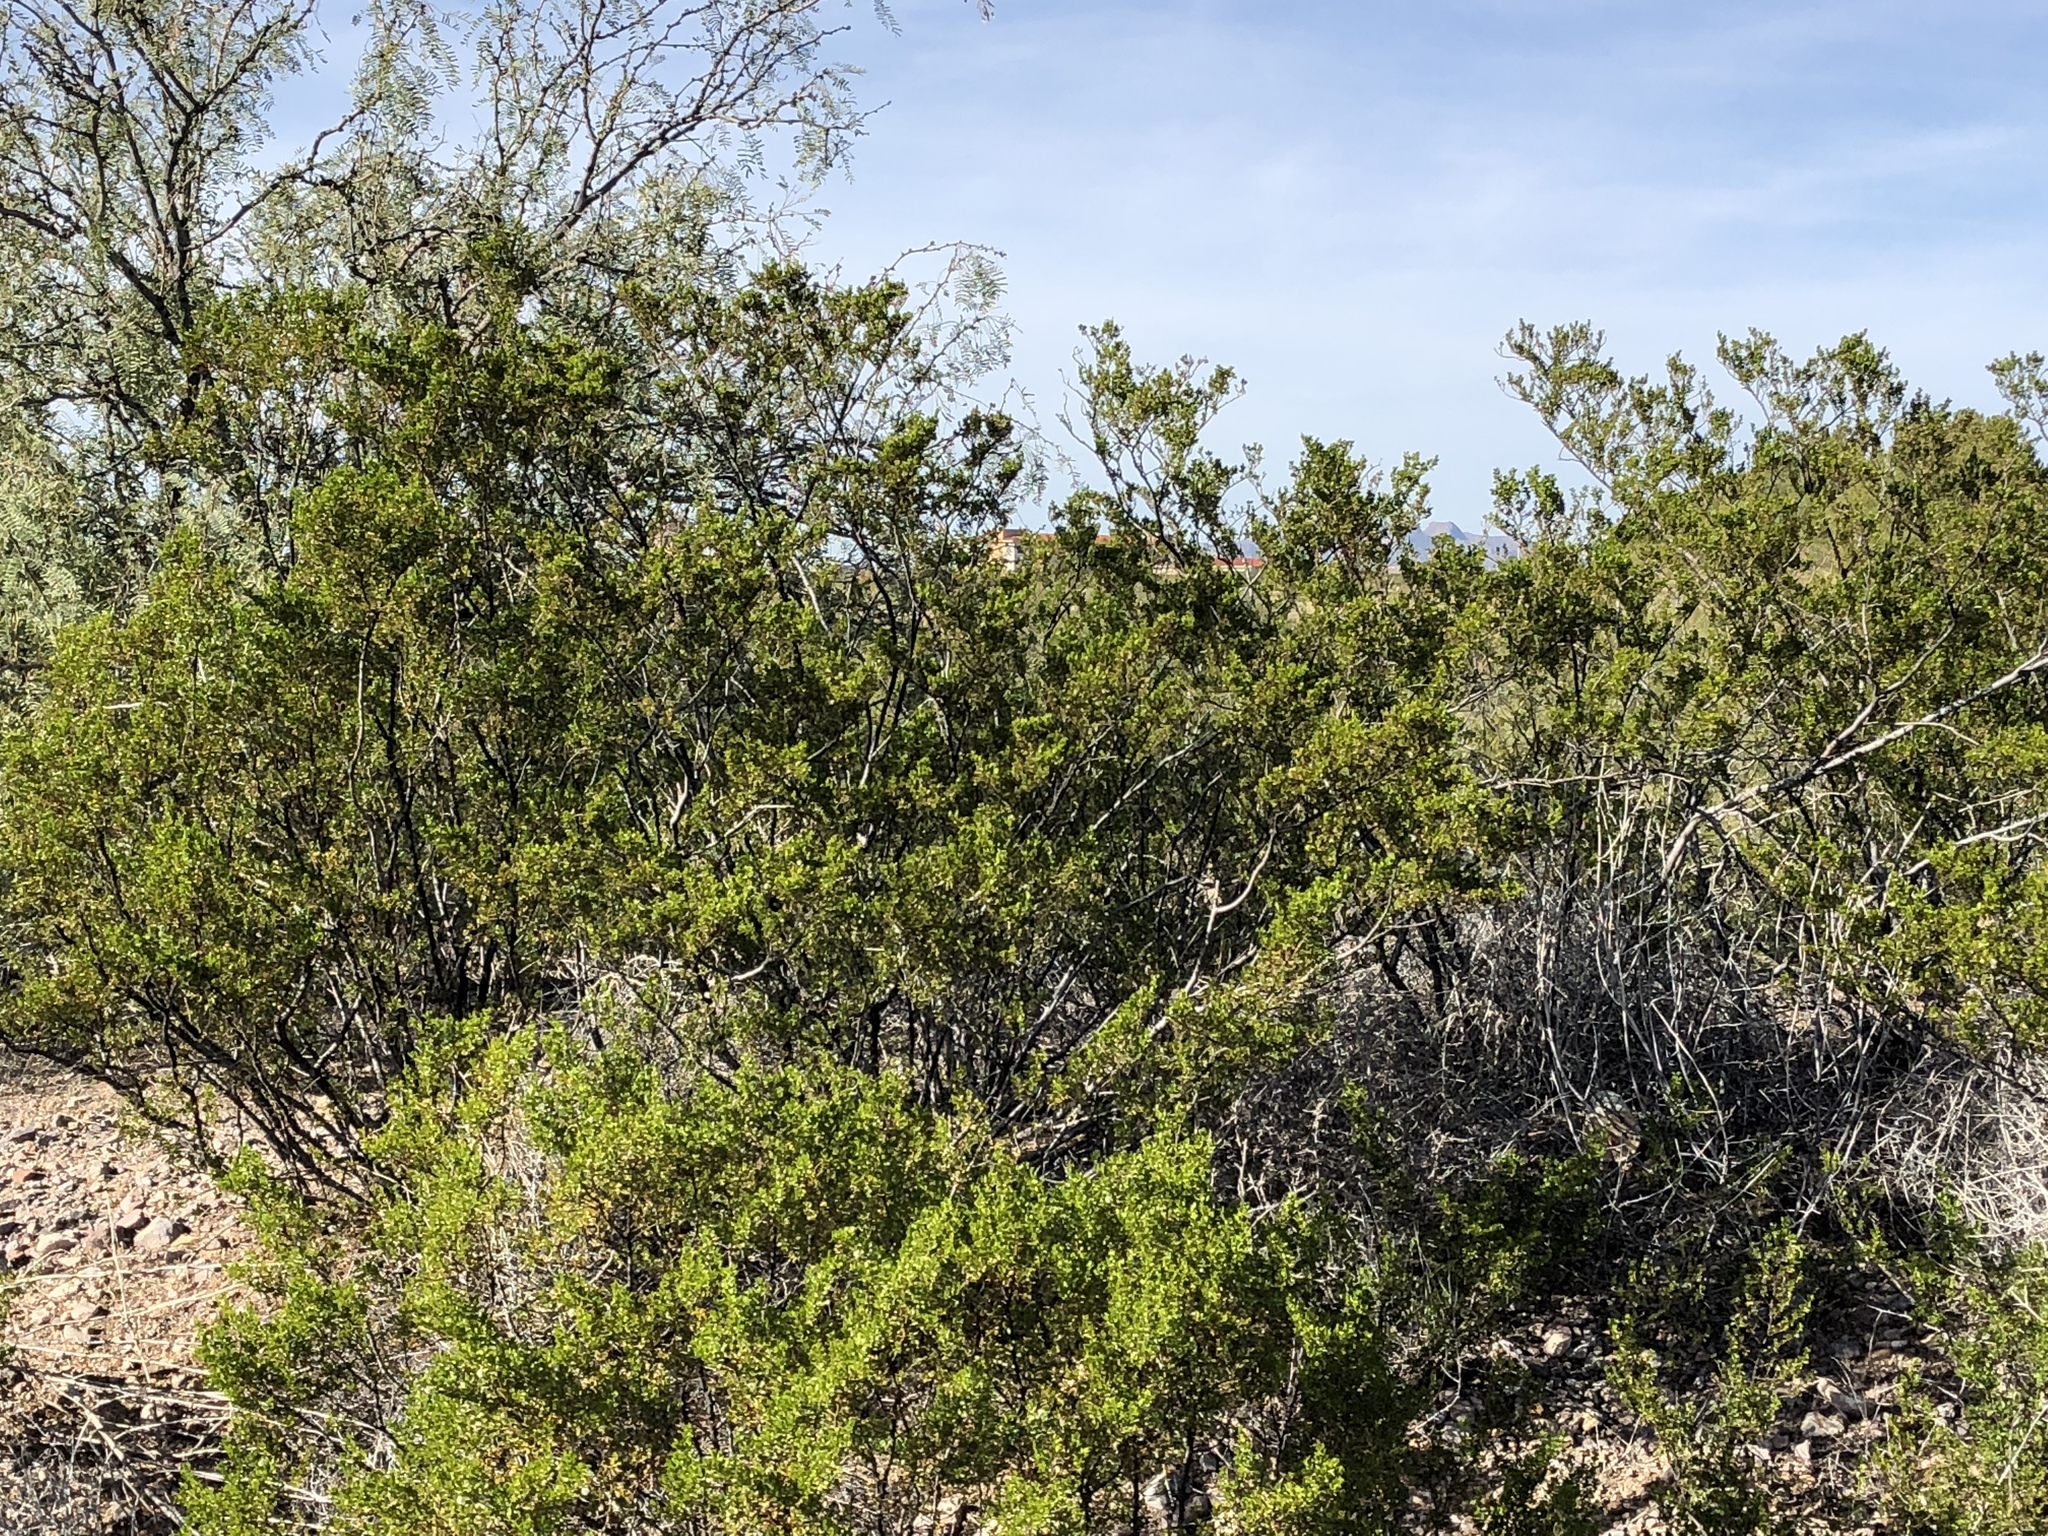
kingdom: Plantae
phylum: Tracheophyta
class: Magnoliopsida
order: Zygophyllales
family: Zygophyllaceae
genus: Larrea
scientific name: Larrea tridentata
